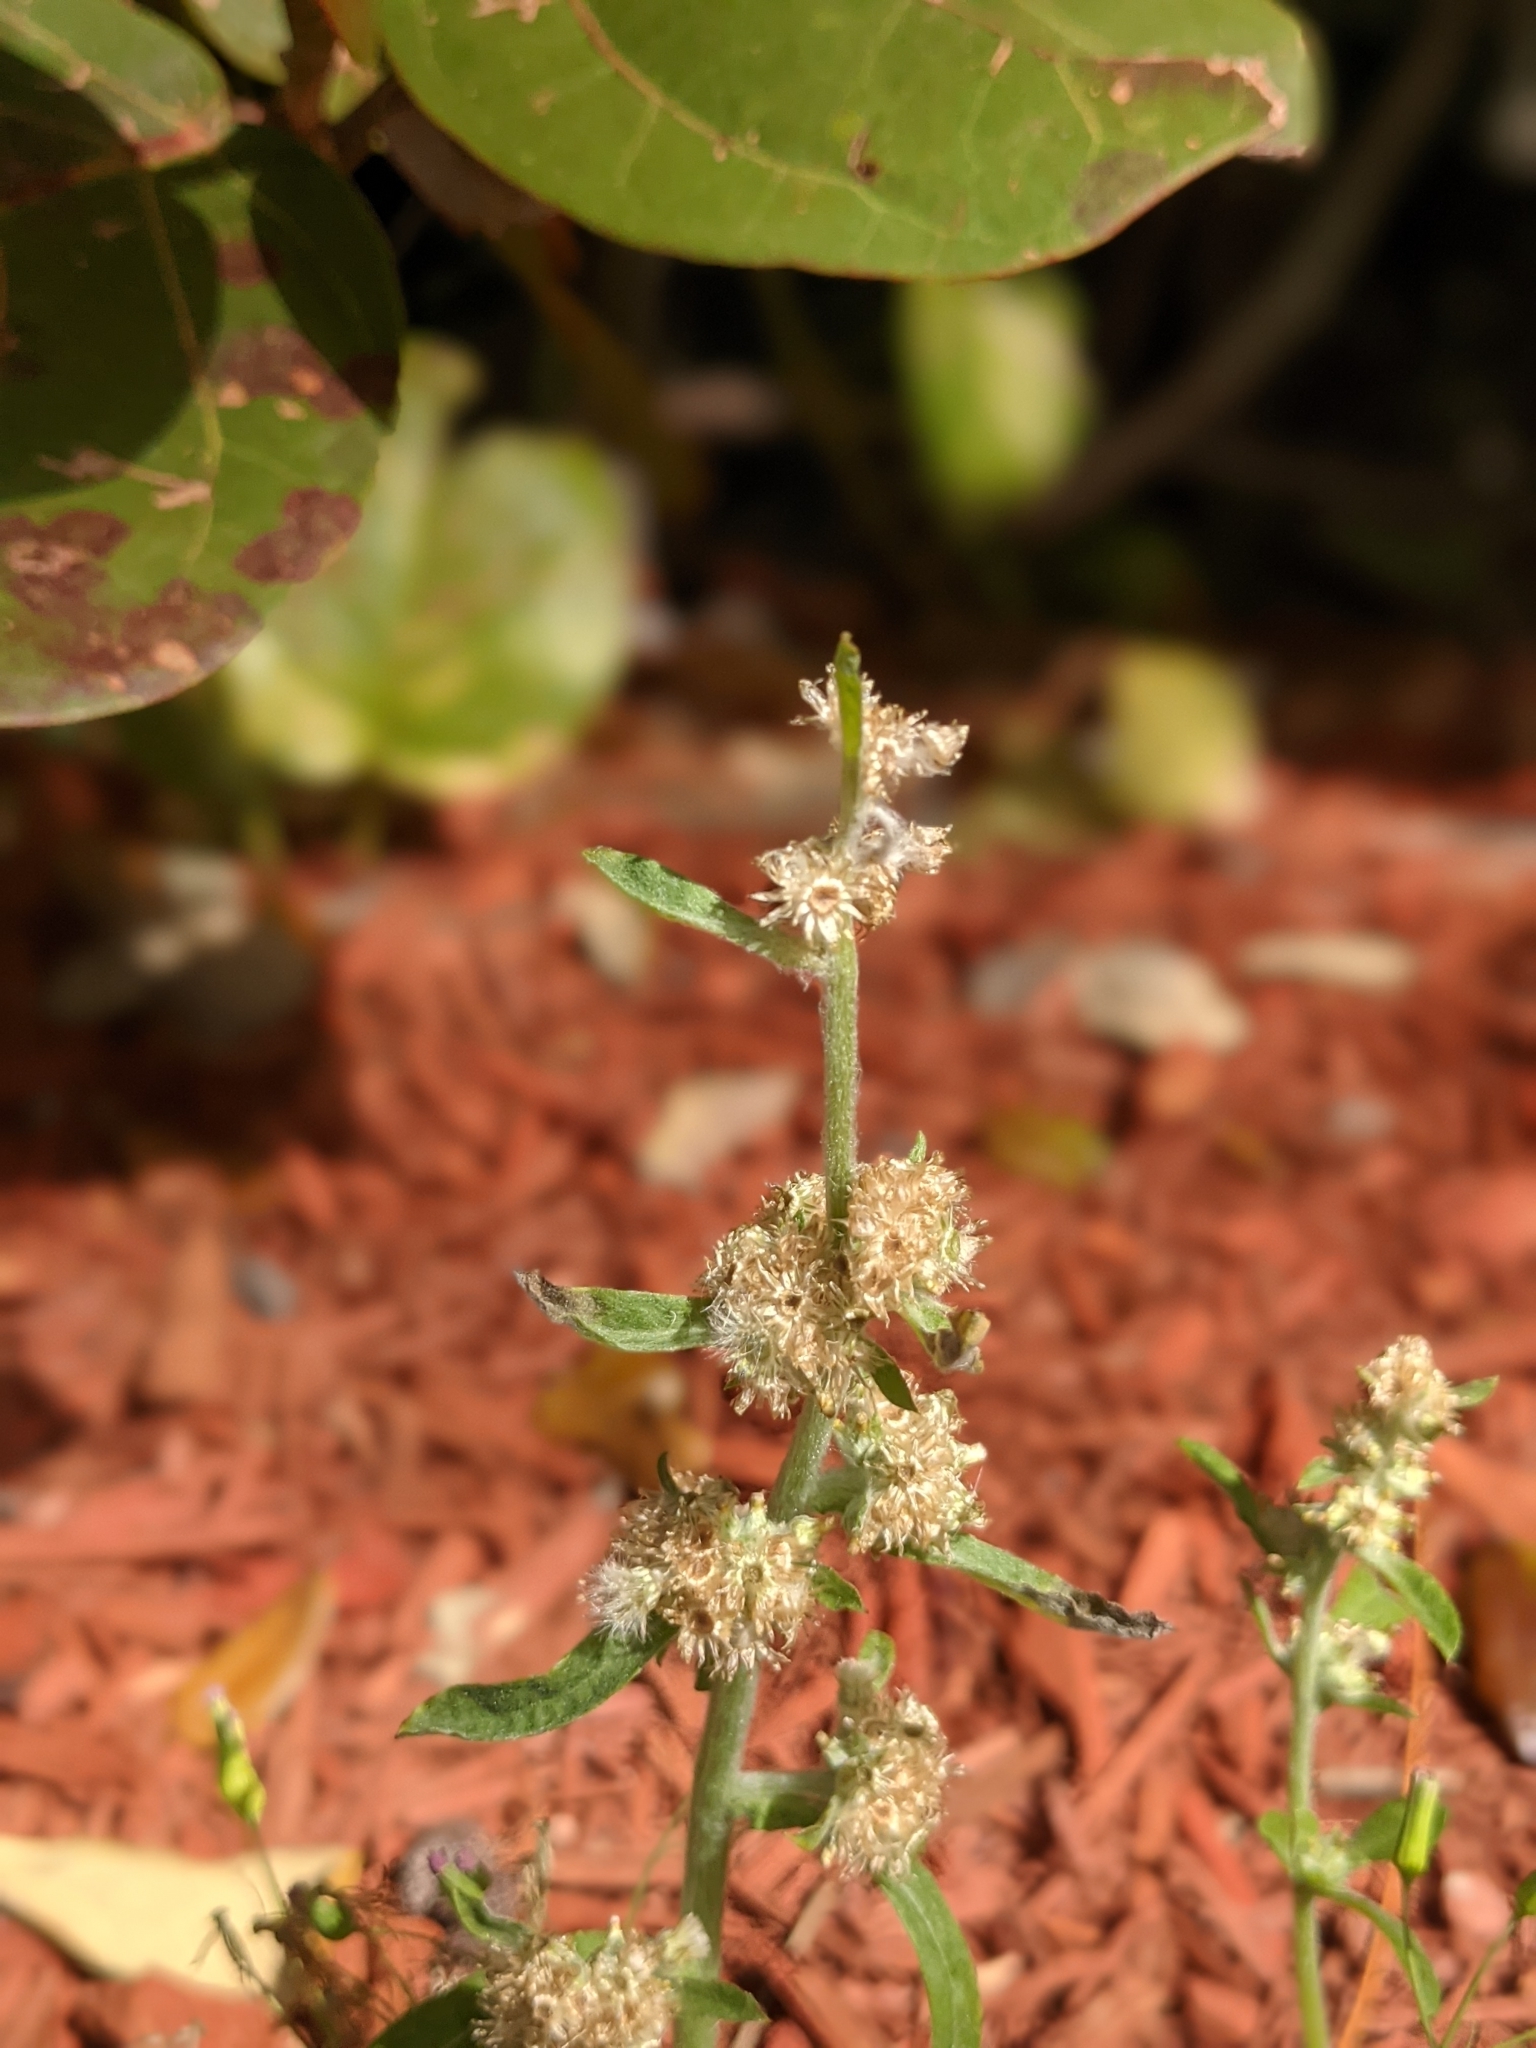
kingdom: Plantae
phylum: Tracheophyta
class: Magnoliopsida
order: Asterales
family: Asteraceae
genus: Gamochaeta
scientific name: Gamochaeta pensylvanica
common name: Pennsylvania everlasting
